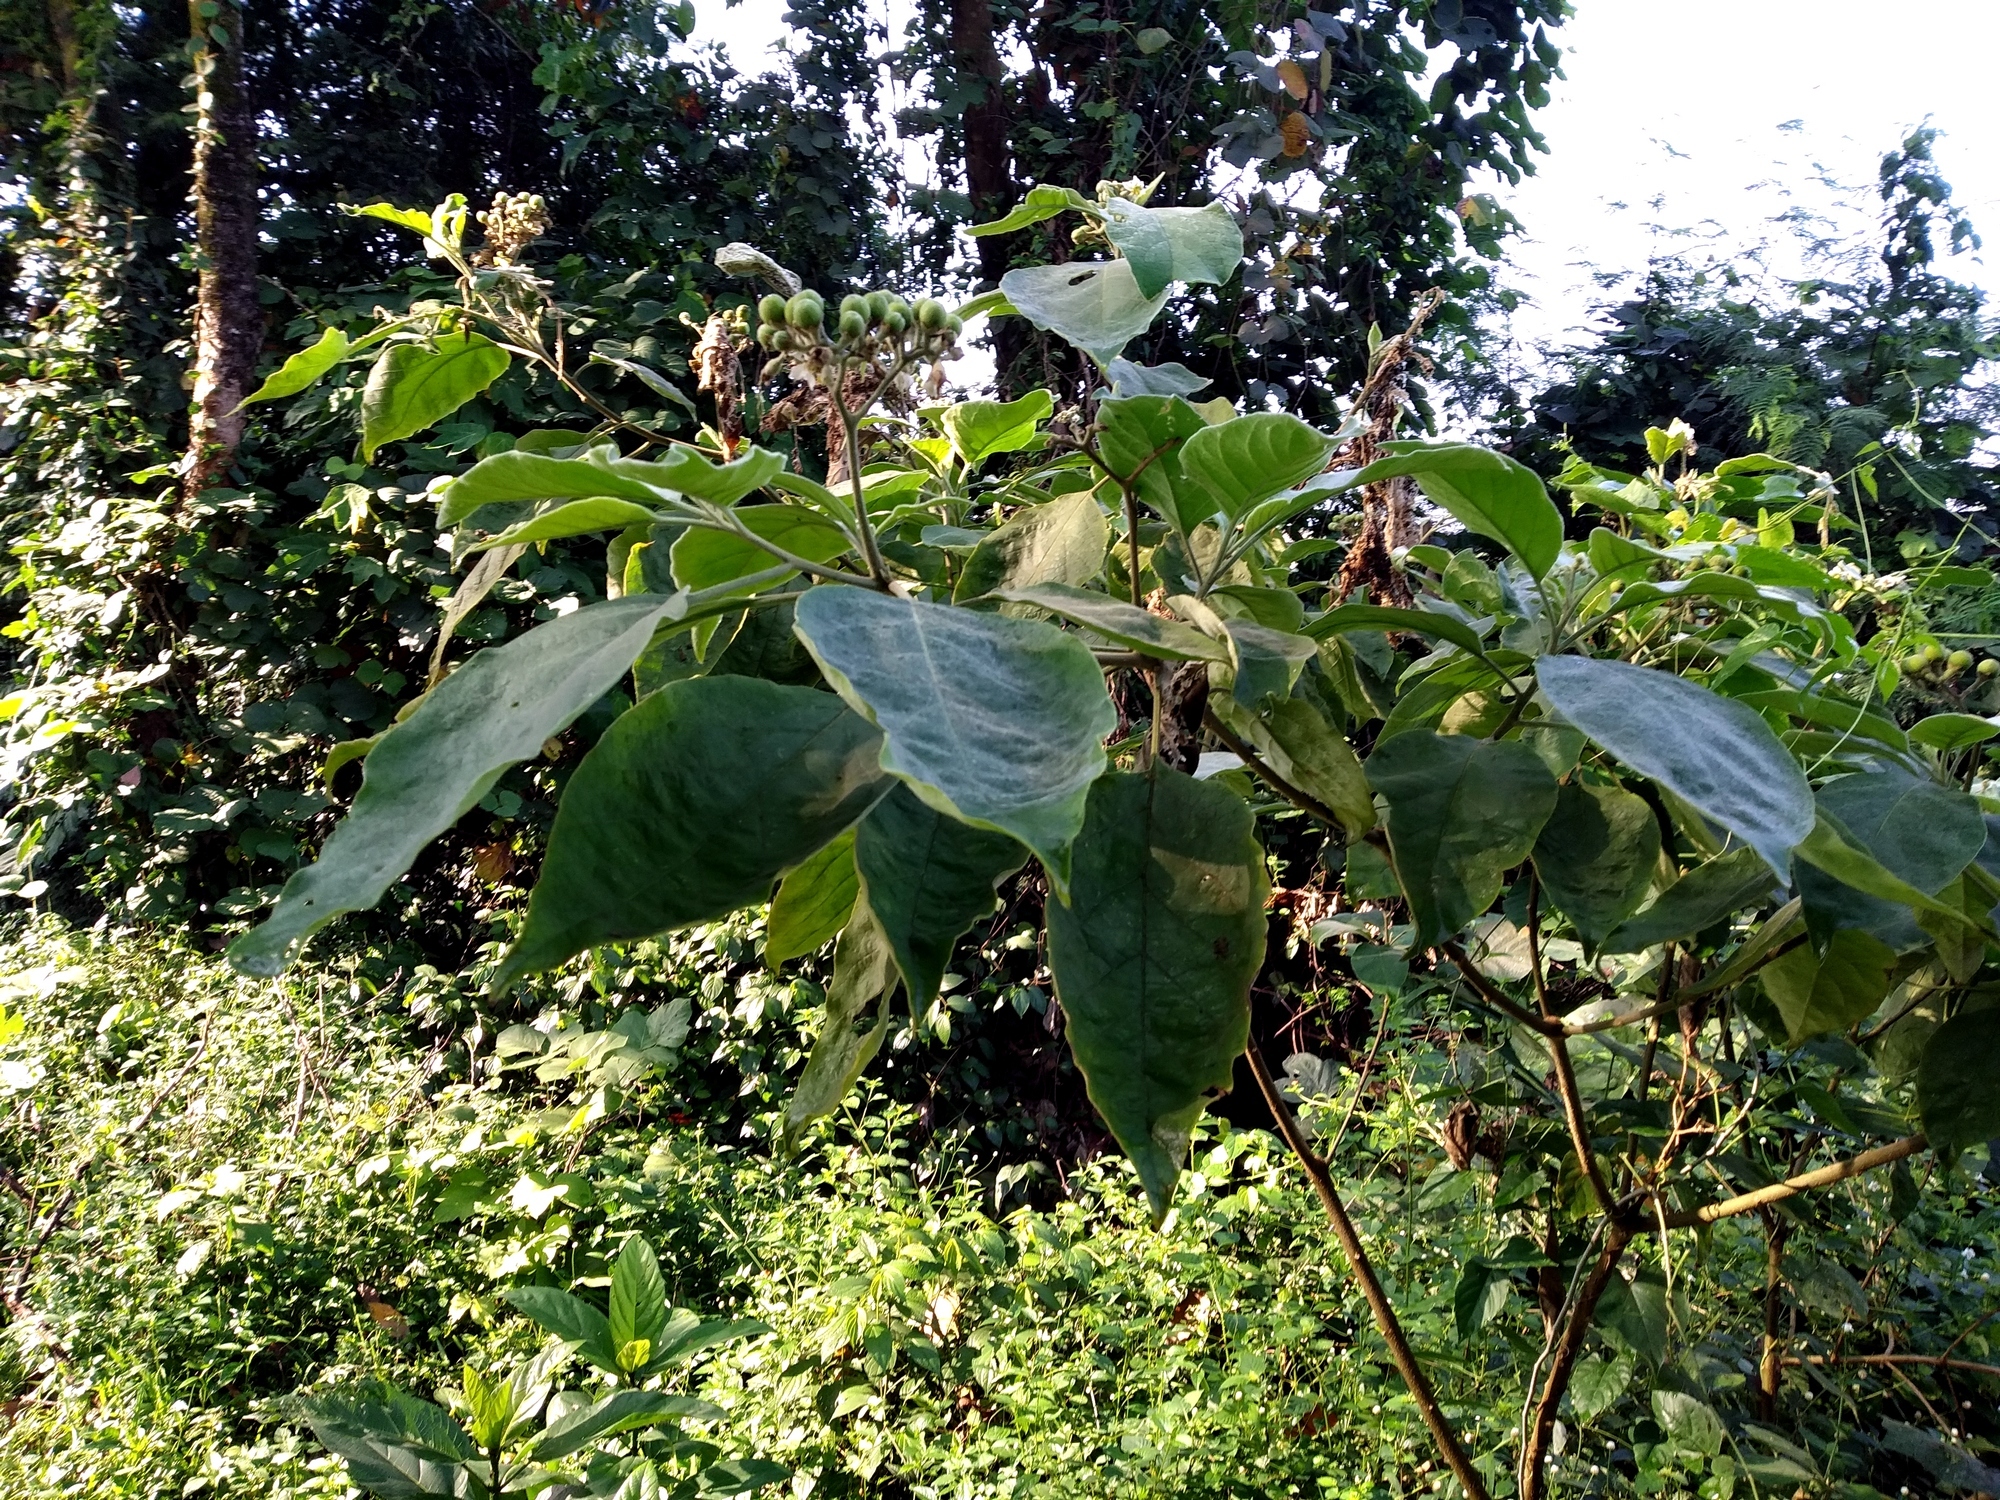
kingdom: Plantae
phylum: Tracheophyta
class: Magnoliopsida
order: Solanales
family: Solanaceae
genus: Solanum
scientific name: Solanum erianthum
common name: Tobacco-tree
